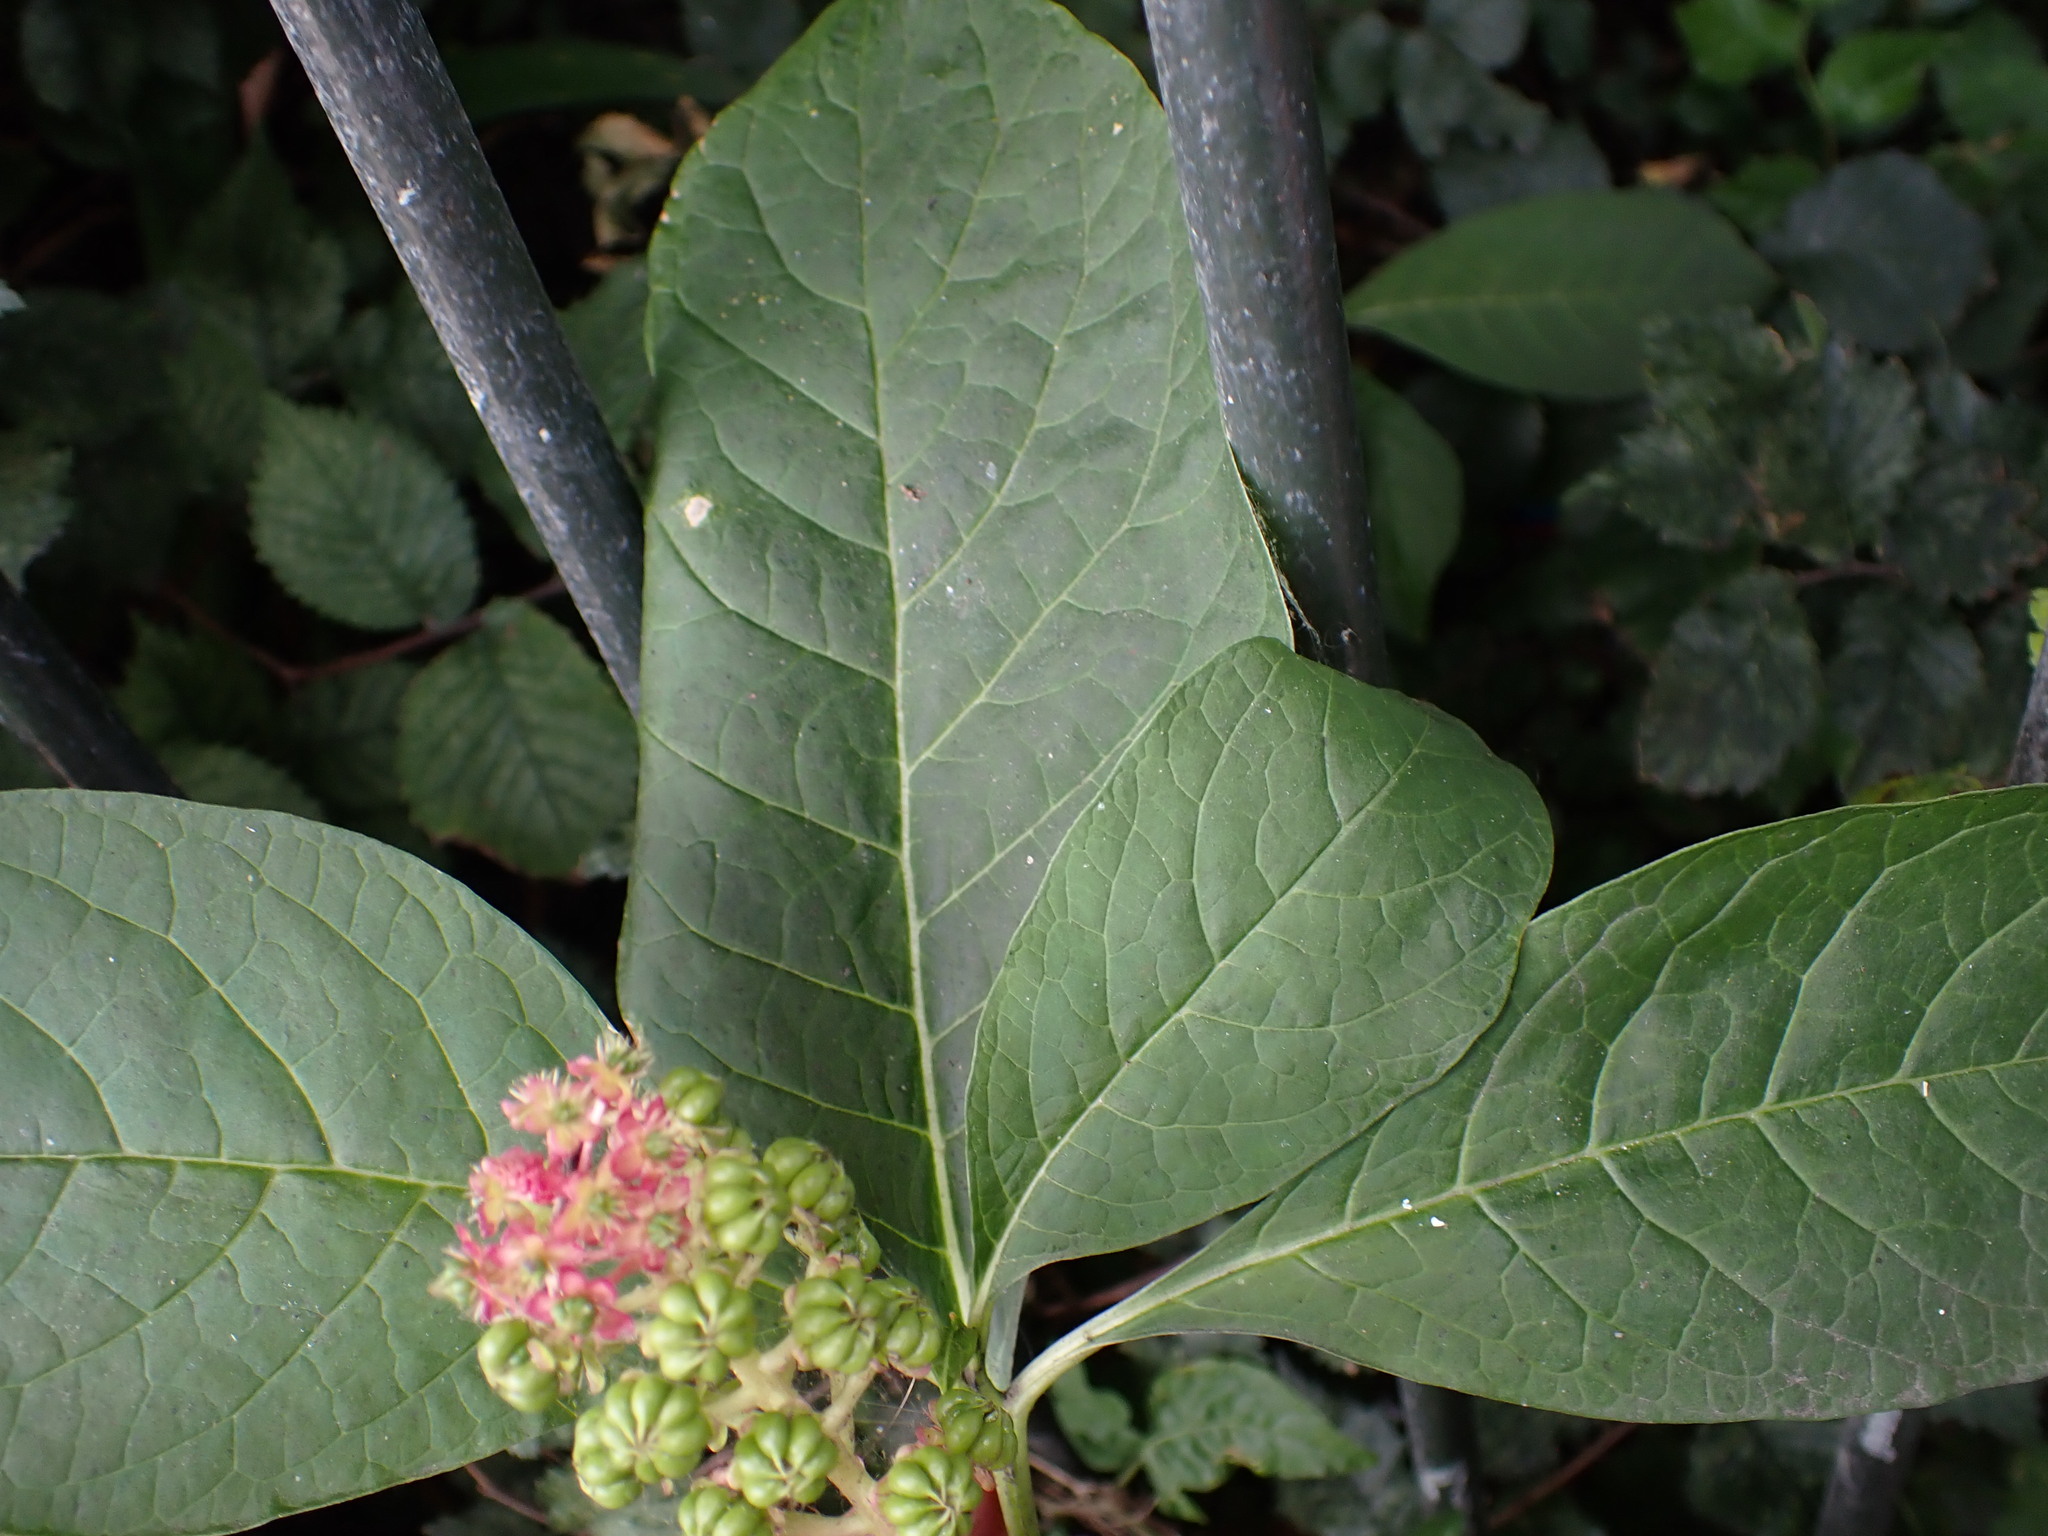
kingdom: Plantae
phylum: Tracheophyta
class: Magnoliopsida
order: Caryophyllales
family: Phytolaccaceae
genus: Phytolacca
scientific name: Phytolacca acinosa
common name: Indian pokeweed
